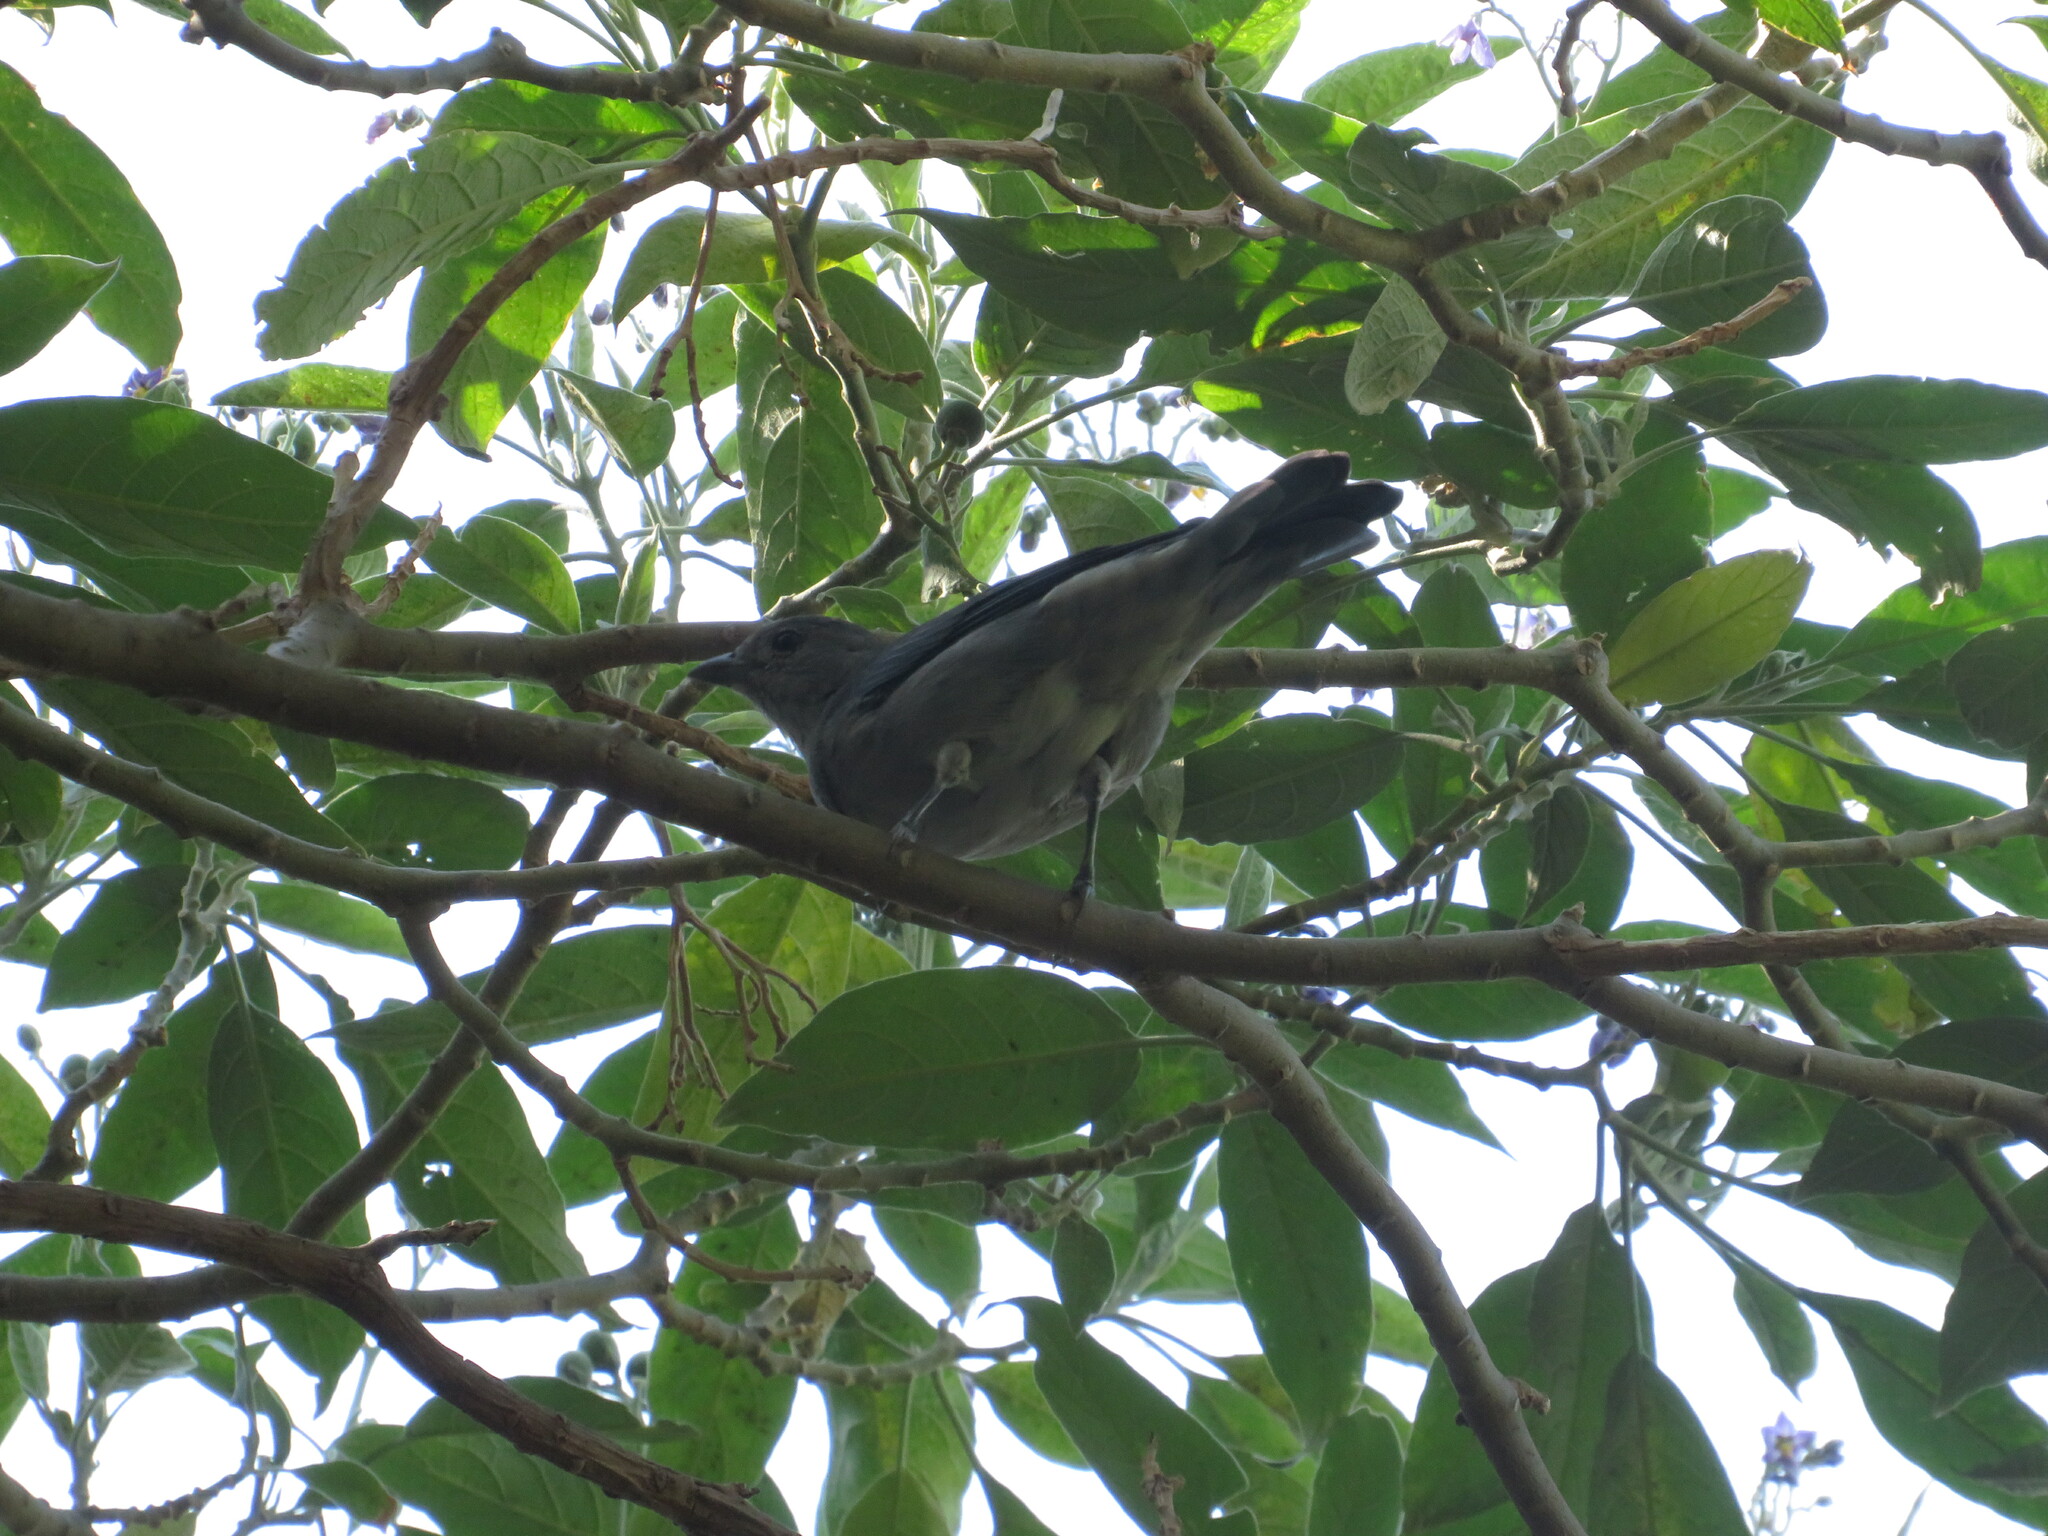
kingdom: Animalia
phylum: Chordata
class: Aves
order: Passeriformes
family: Thraupidae
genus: Thraupis
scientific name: Thraupis sayaca
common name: Sayaca tanager
